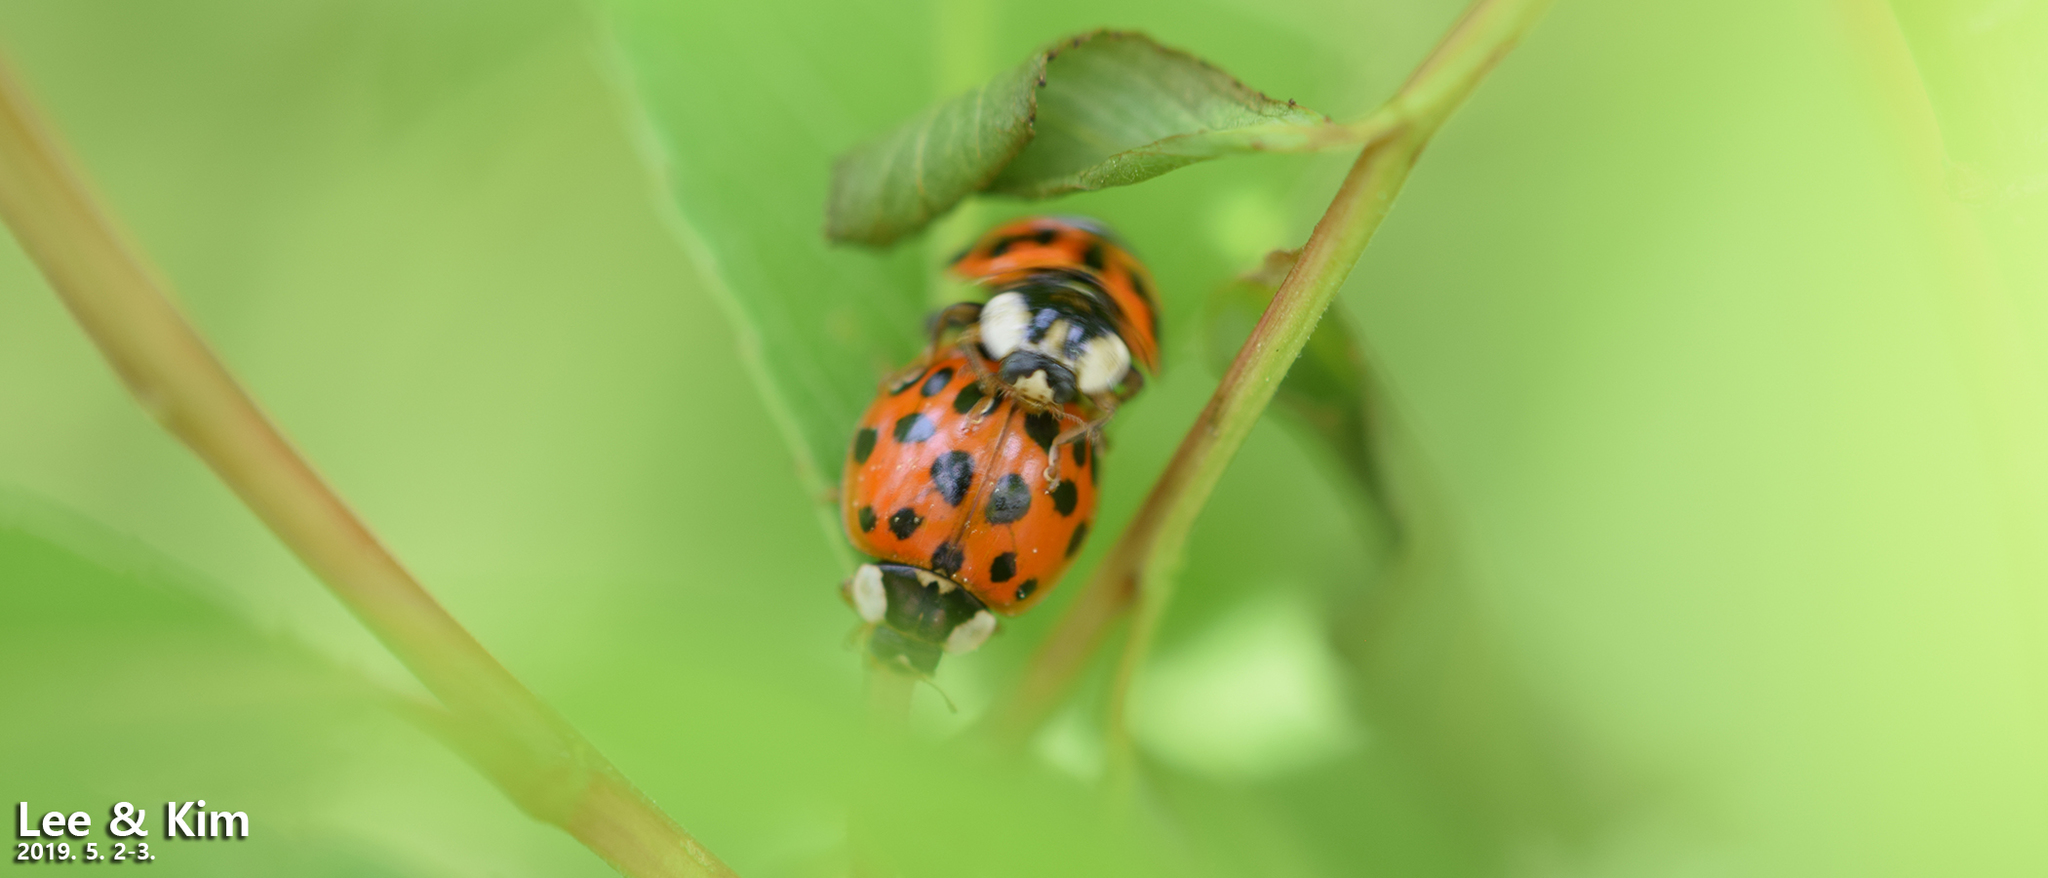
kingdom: Animalia
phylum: Arthropoda
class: Insecta
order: Coleoptera
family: Coccinellidae
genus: Harmonia
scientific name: Harmonia axyridis
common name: Harlequin ladybird
